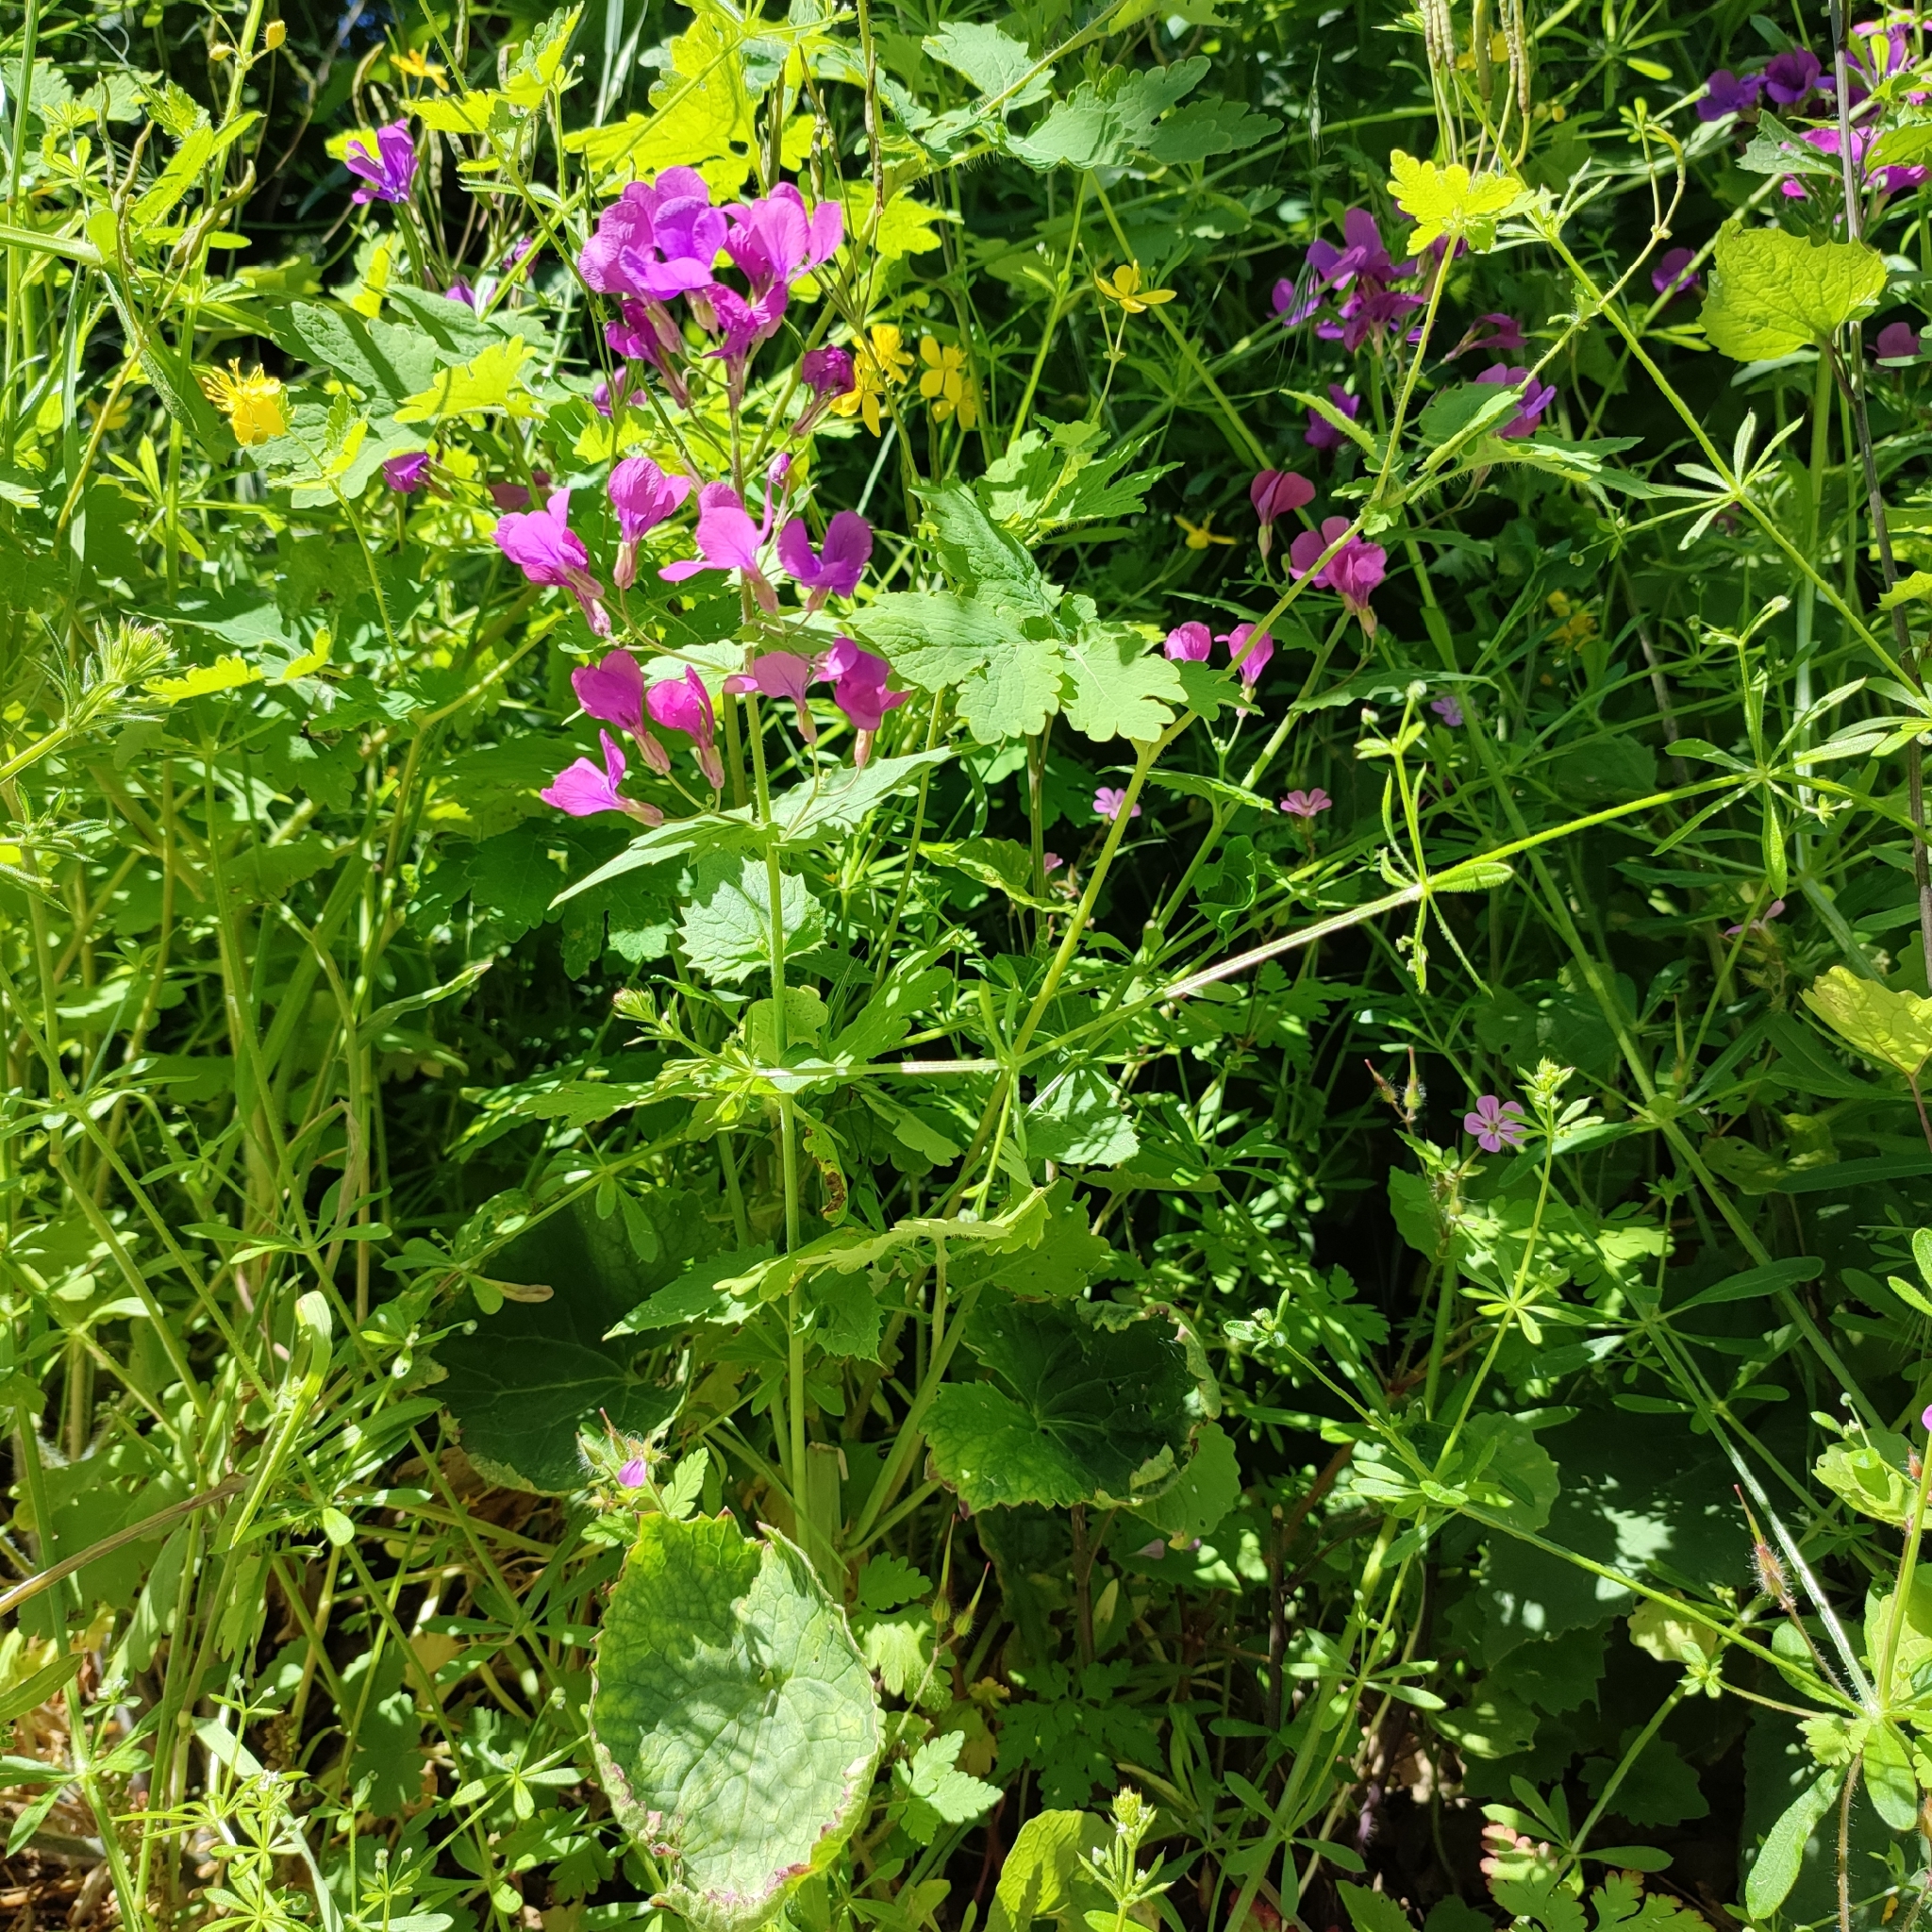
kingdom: Plantae
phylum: Tracheophyta
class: Magnoliopsida
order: Brassicales
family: Brassicaceae
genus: Lunaria
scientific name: Lunaria annua
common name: Honesty
